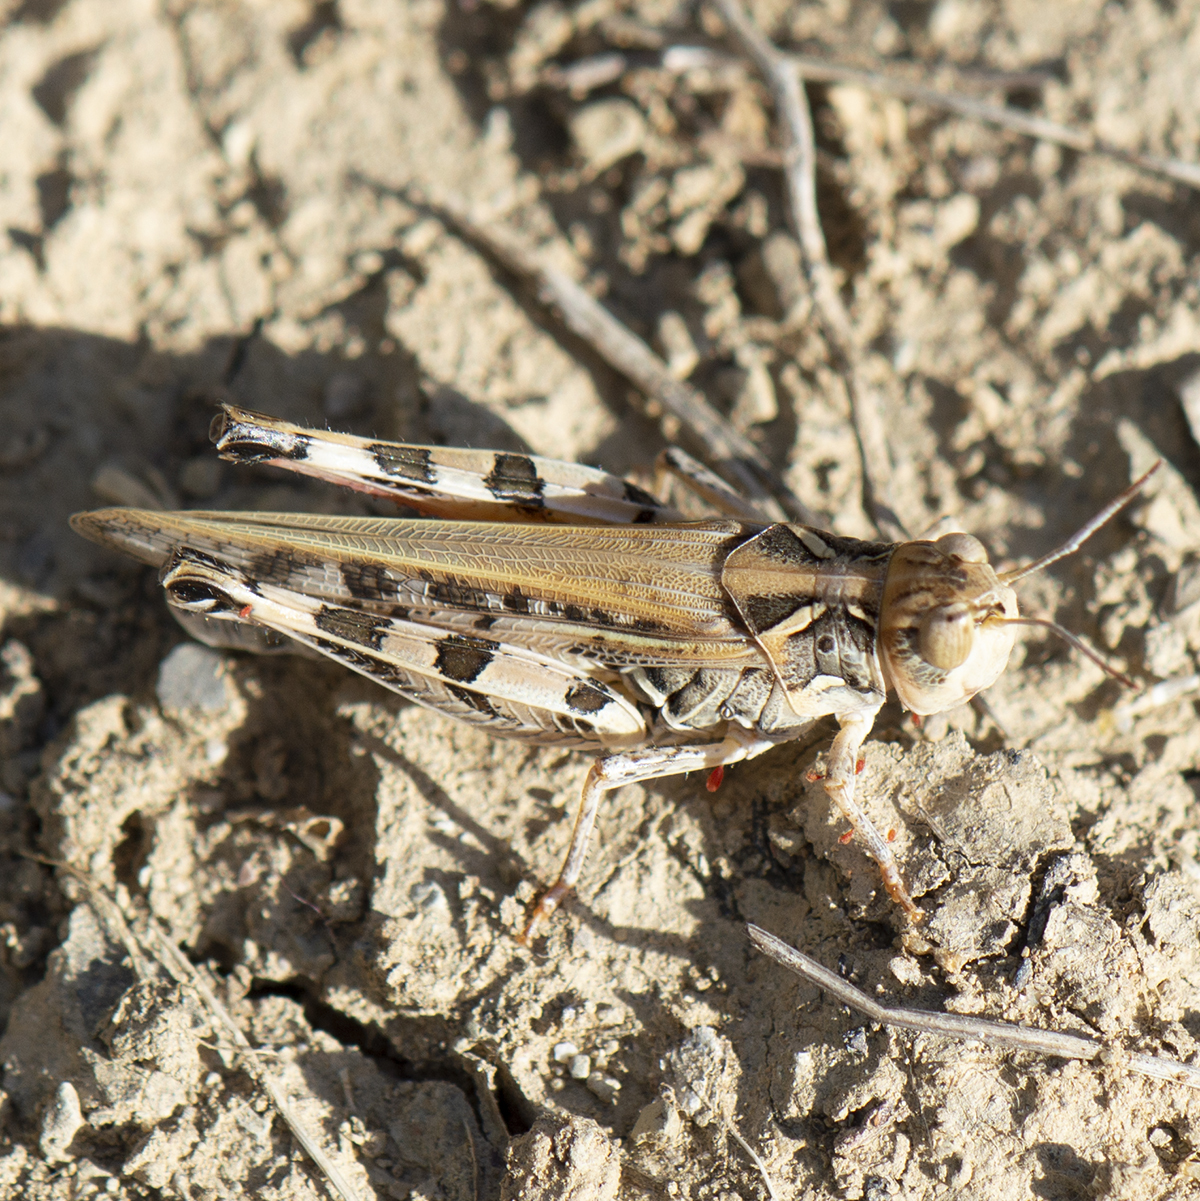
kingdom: Animalia
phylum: Arthropoda
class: Insecta
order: Orthoptera
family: Acrididae
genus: Dociostaurus
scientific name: Dociostaurus maroccanus
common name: Moroccan locust
